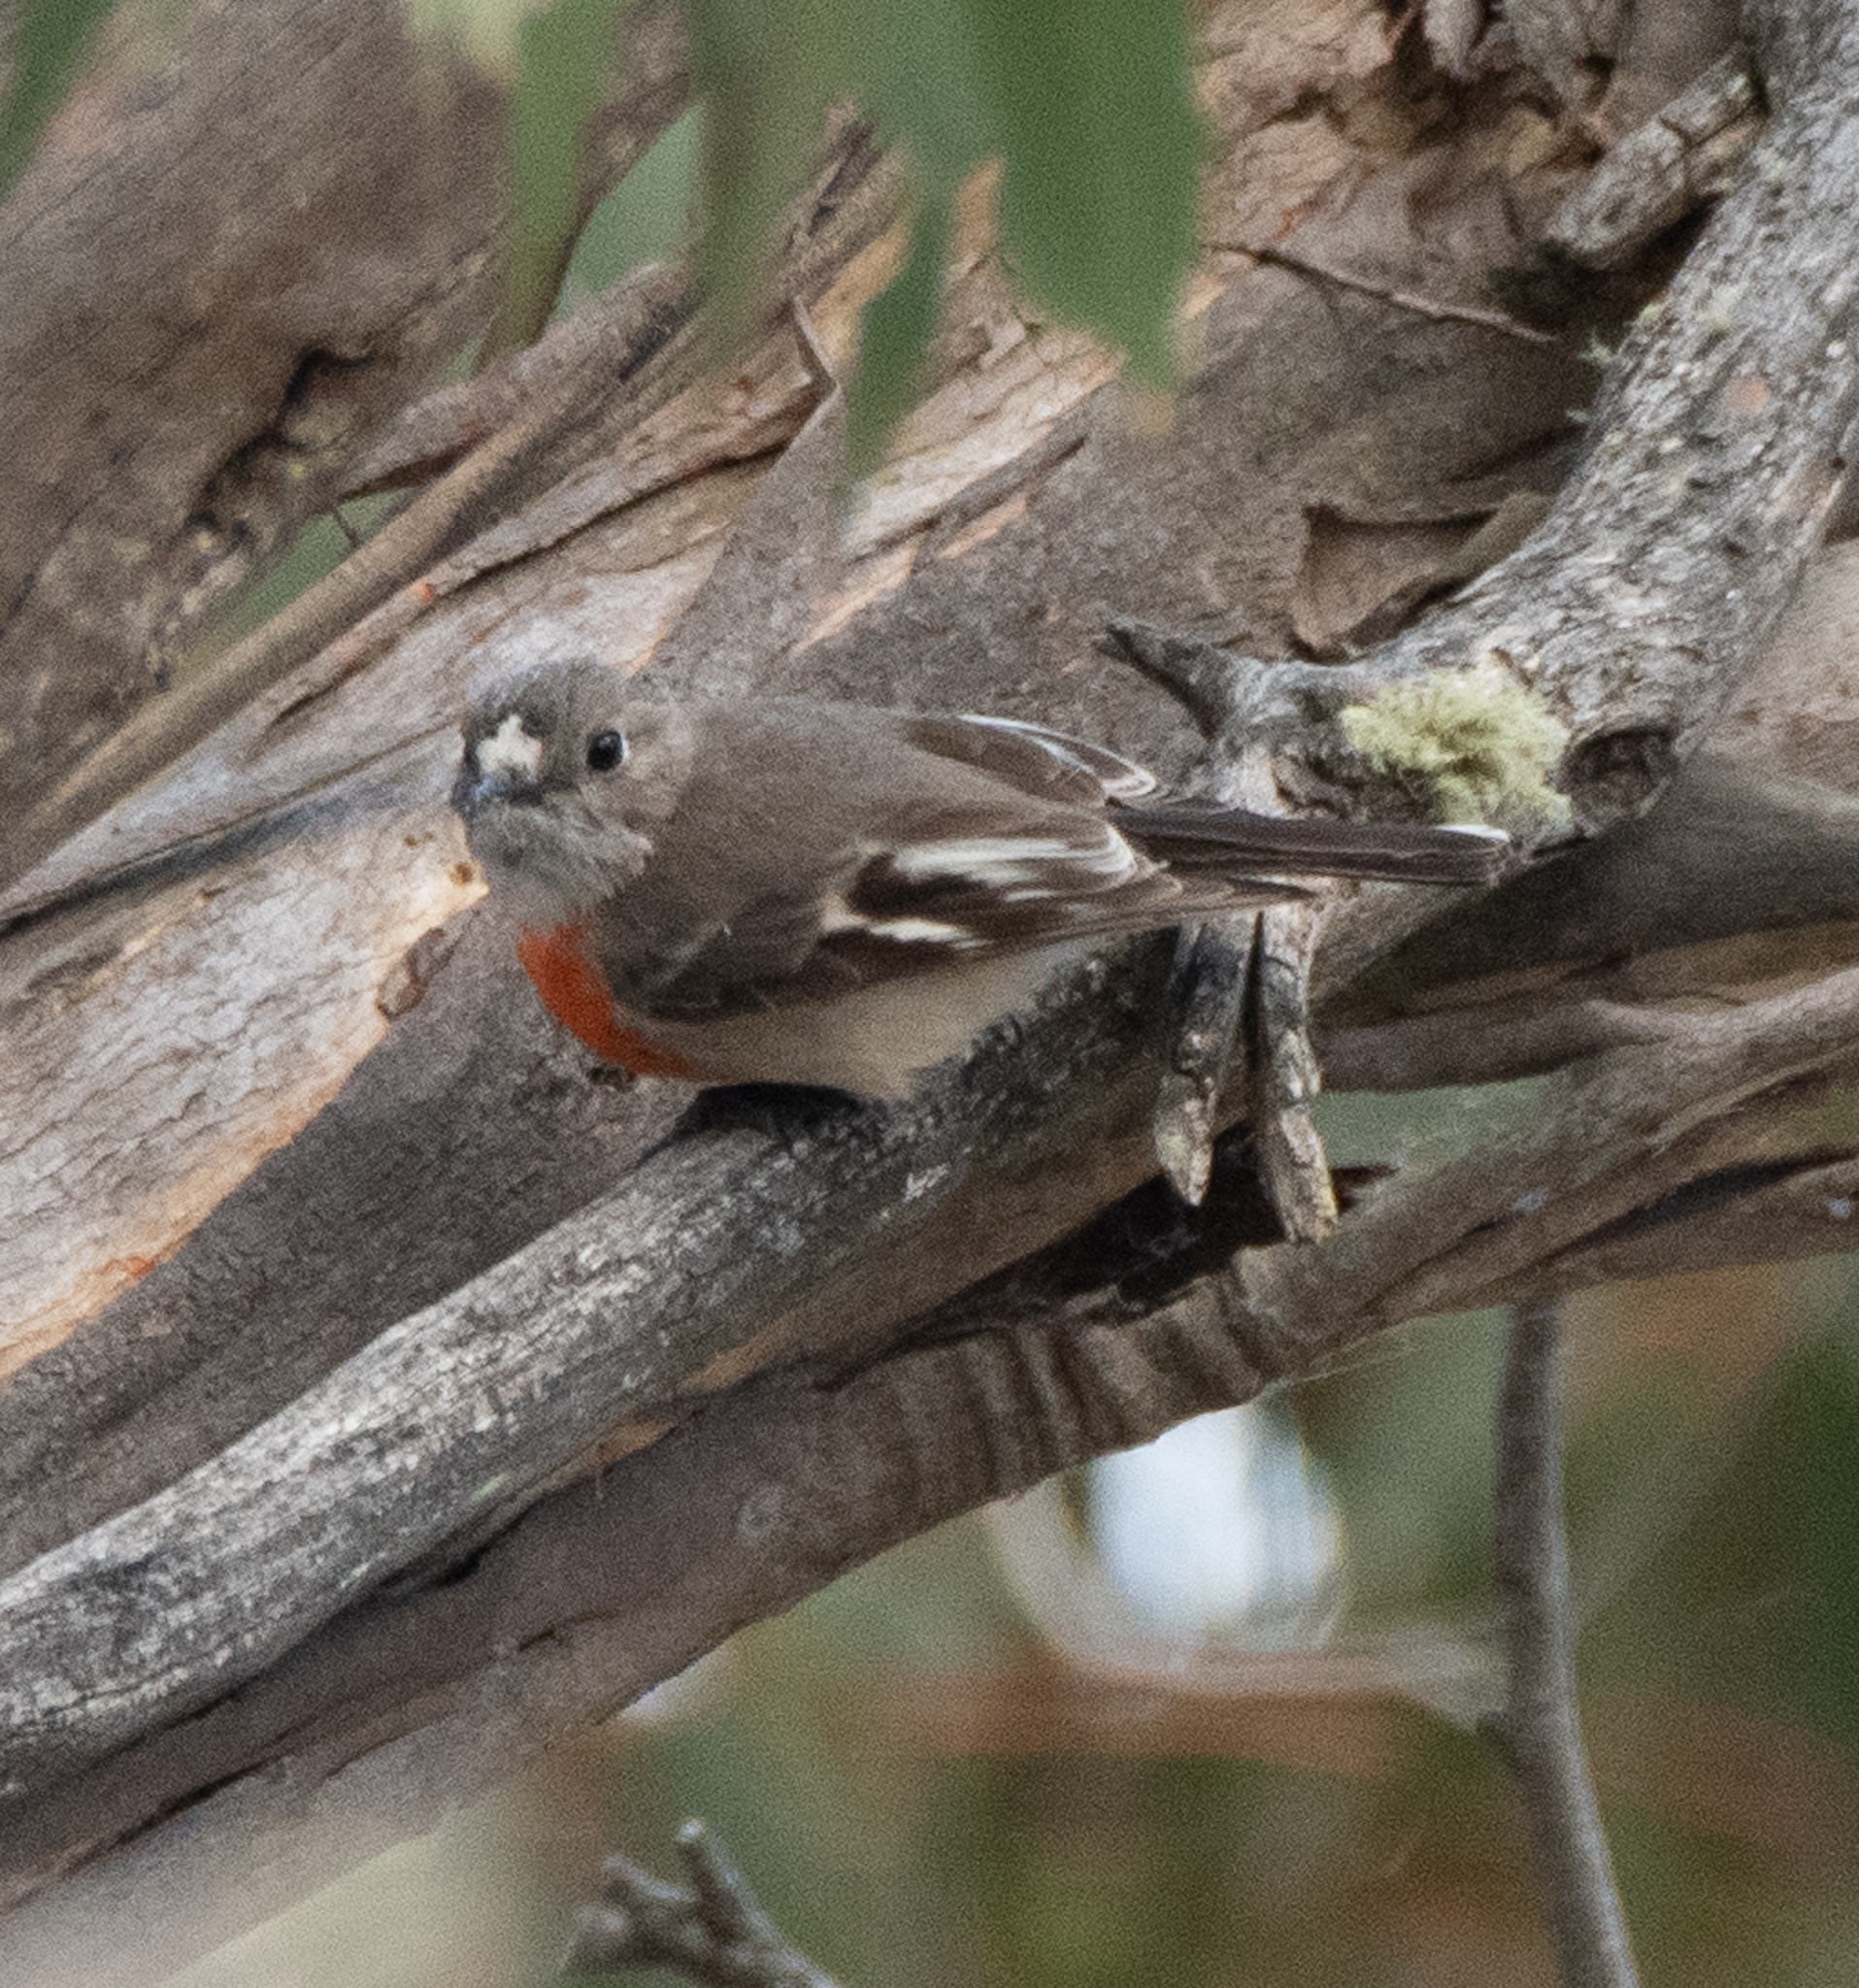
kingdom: Animalia
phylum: Chordata
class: Aves
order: Passeriformes
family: Petroicidae
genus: Petroica
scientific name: Petroica boodang
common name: Scarlet robin
